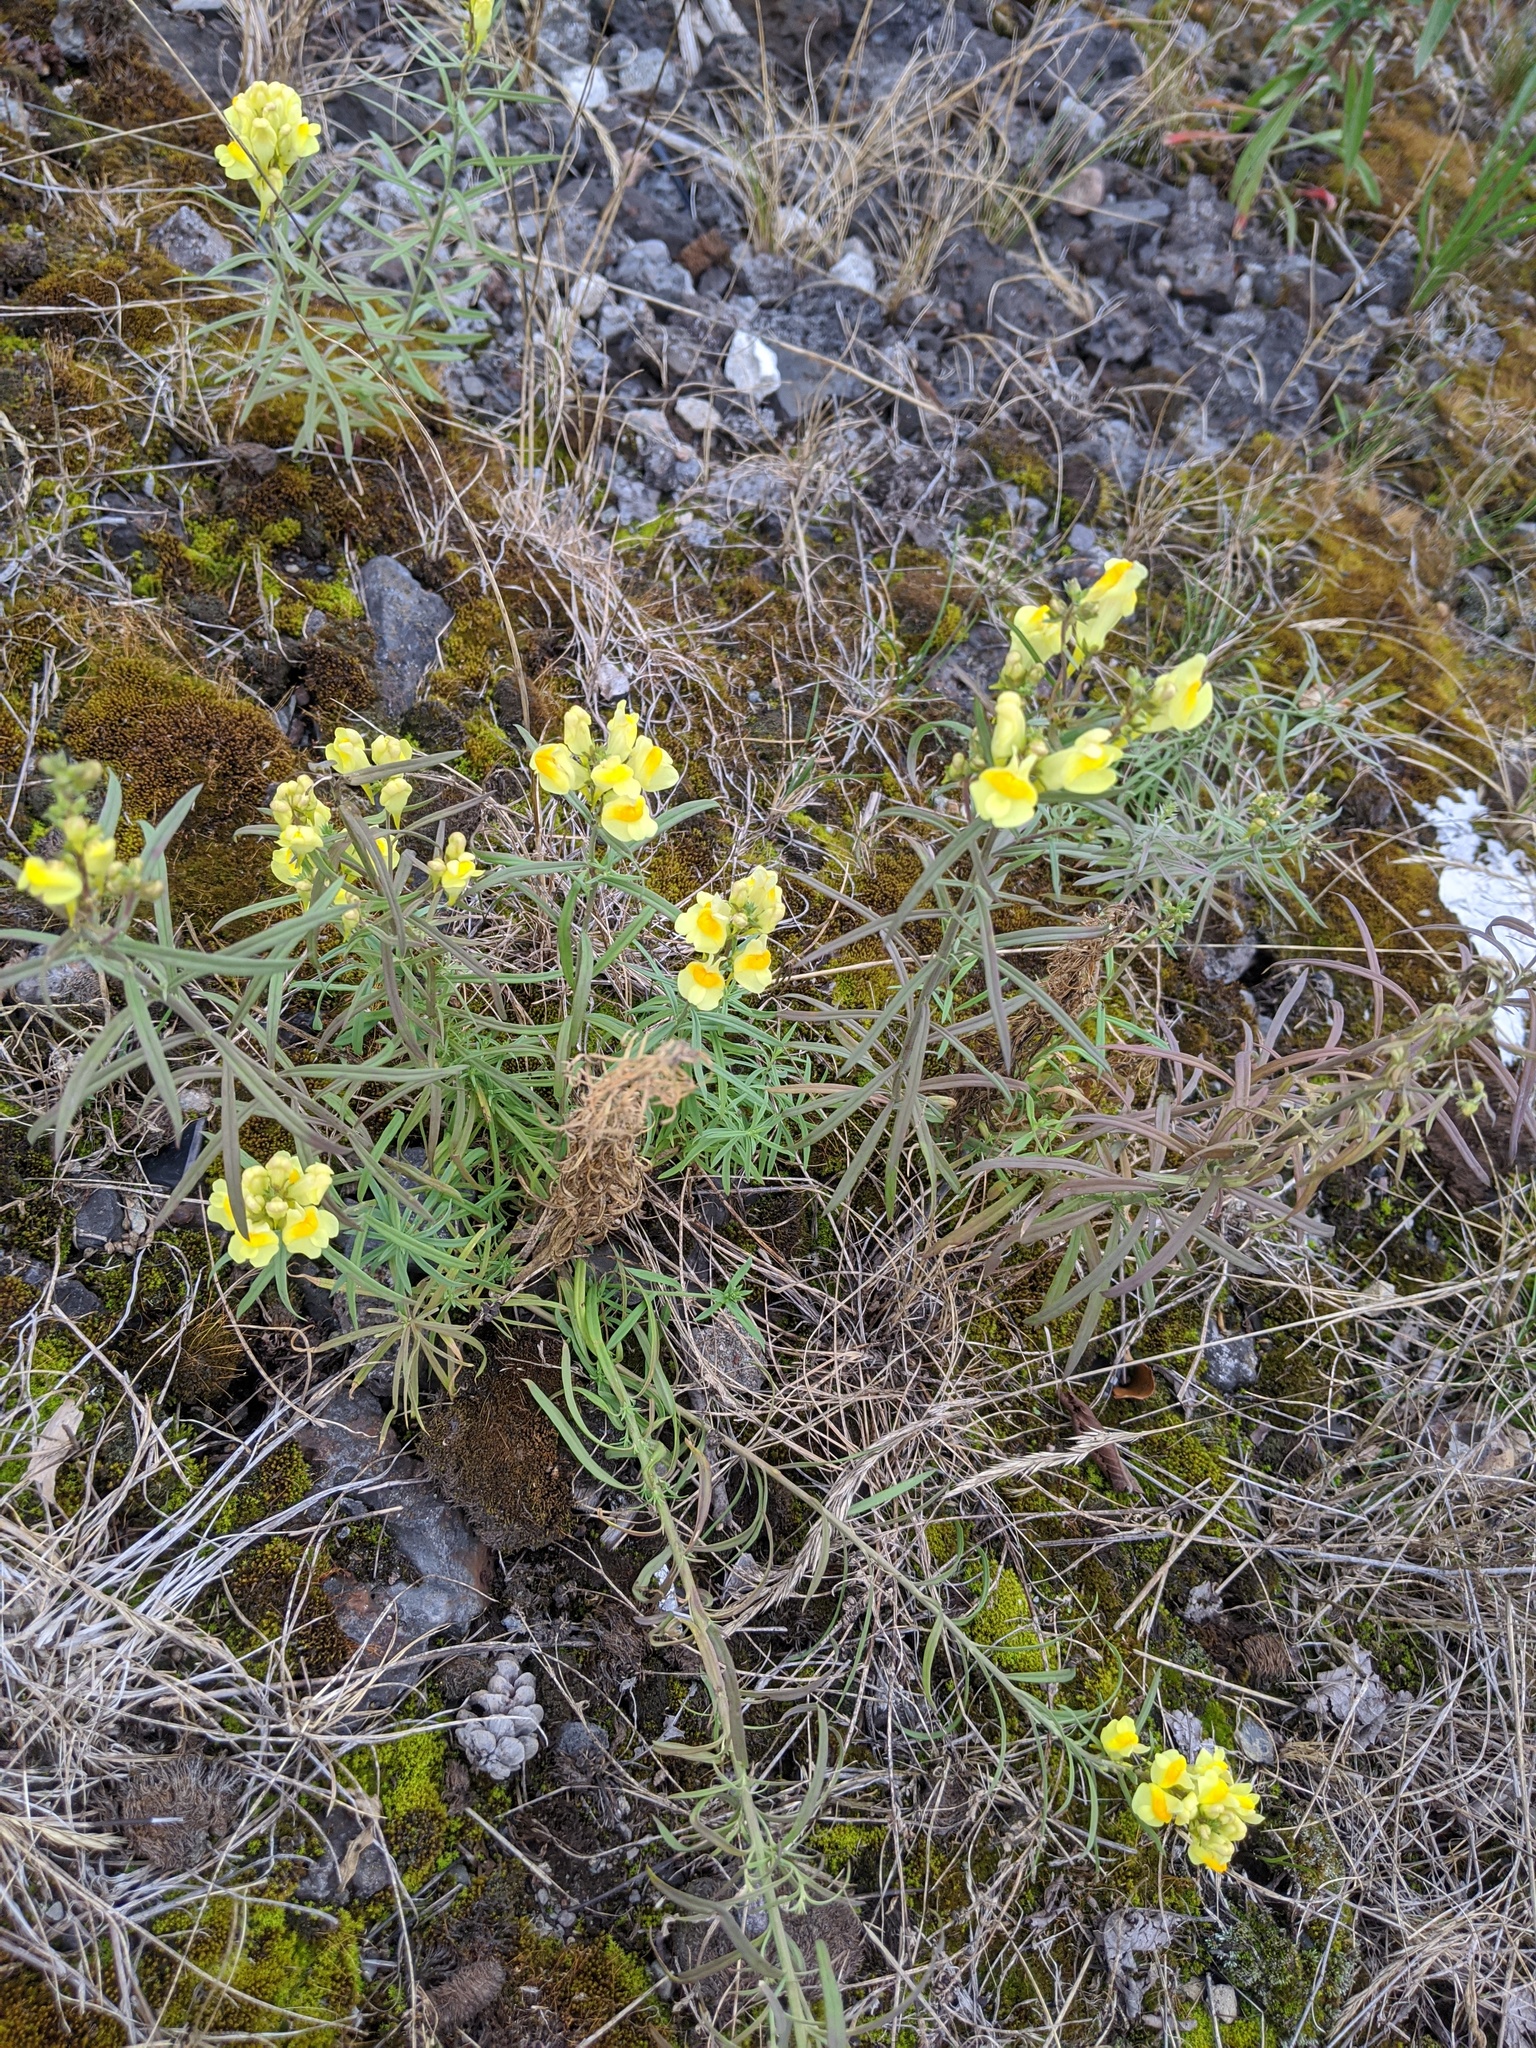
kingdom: Plantae
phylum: Tracheophyta
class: Magnoliopsida
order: Lamiales
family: Plantaginaceae
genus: Linaria
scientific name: Linaria vulgaris
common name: Butter and eggs
